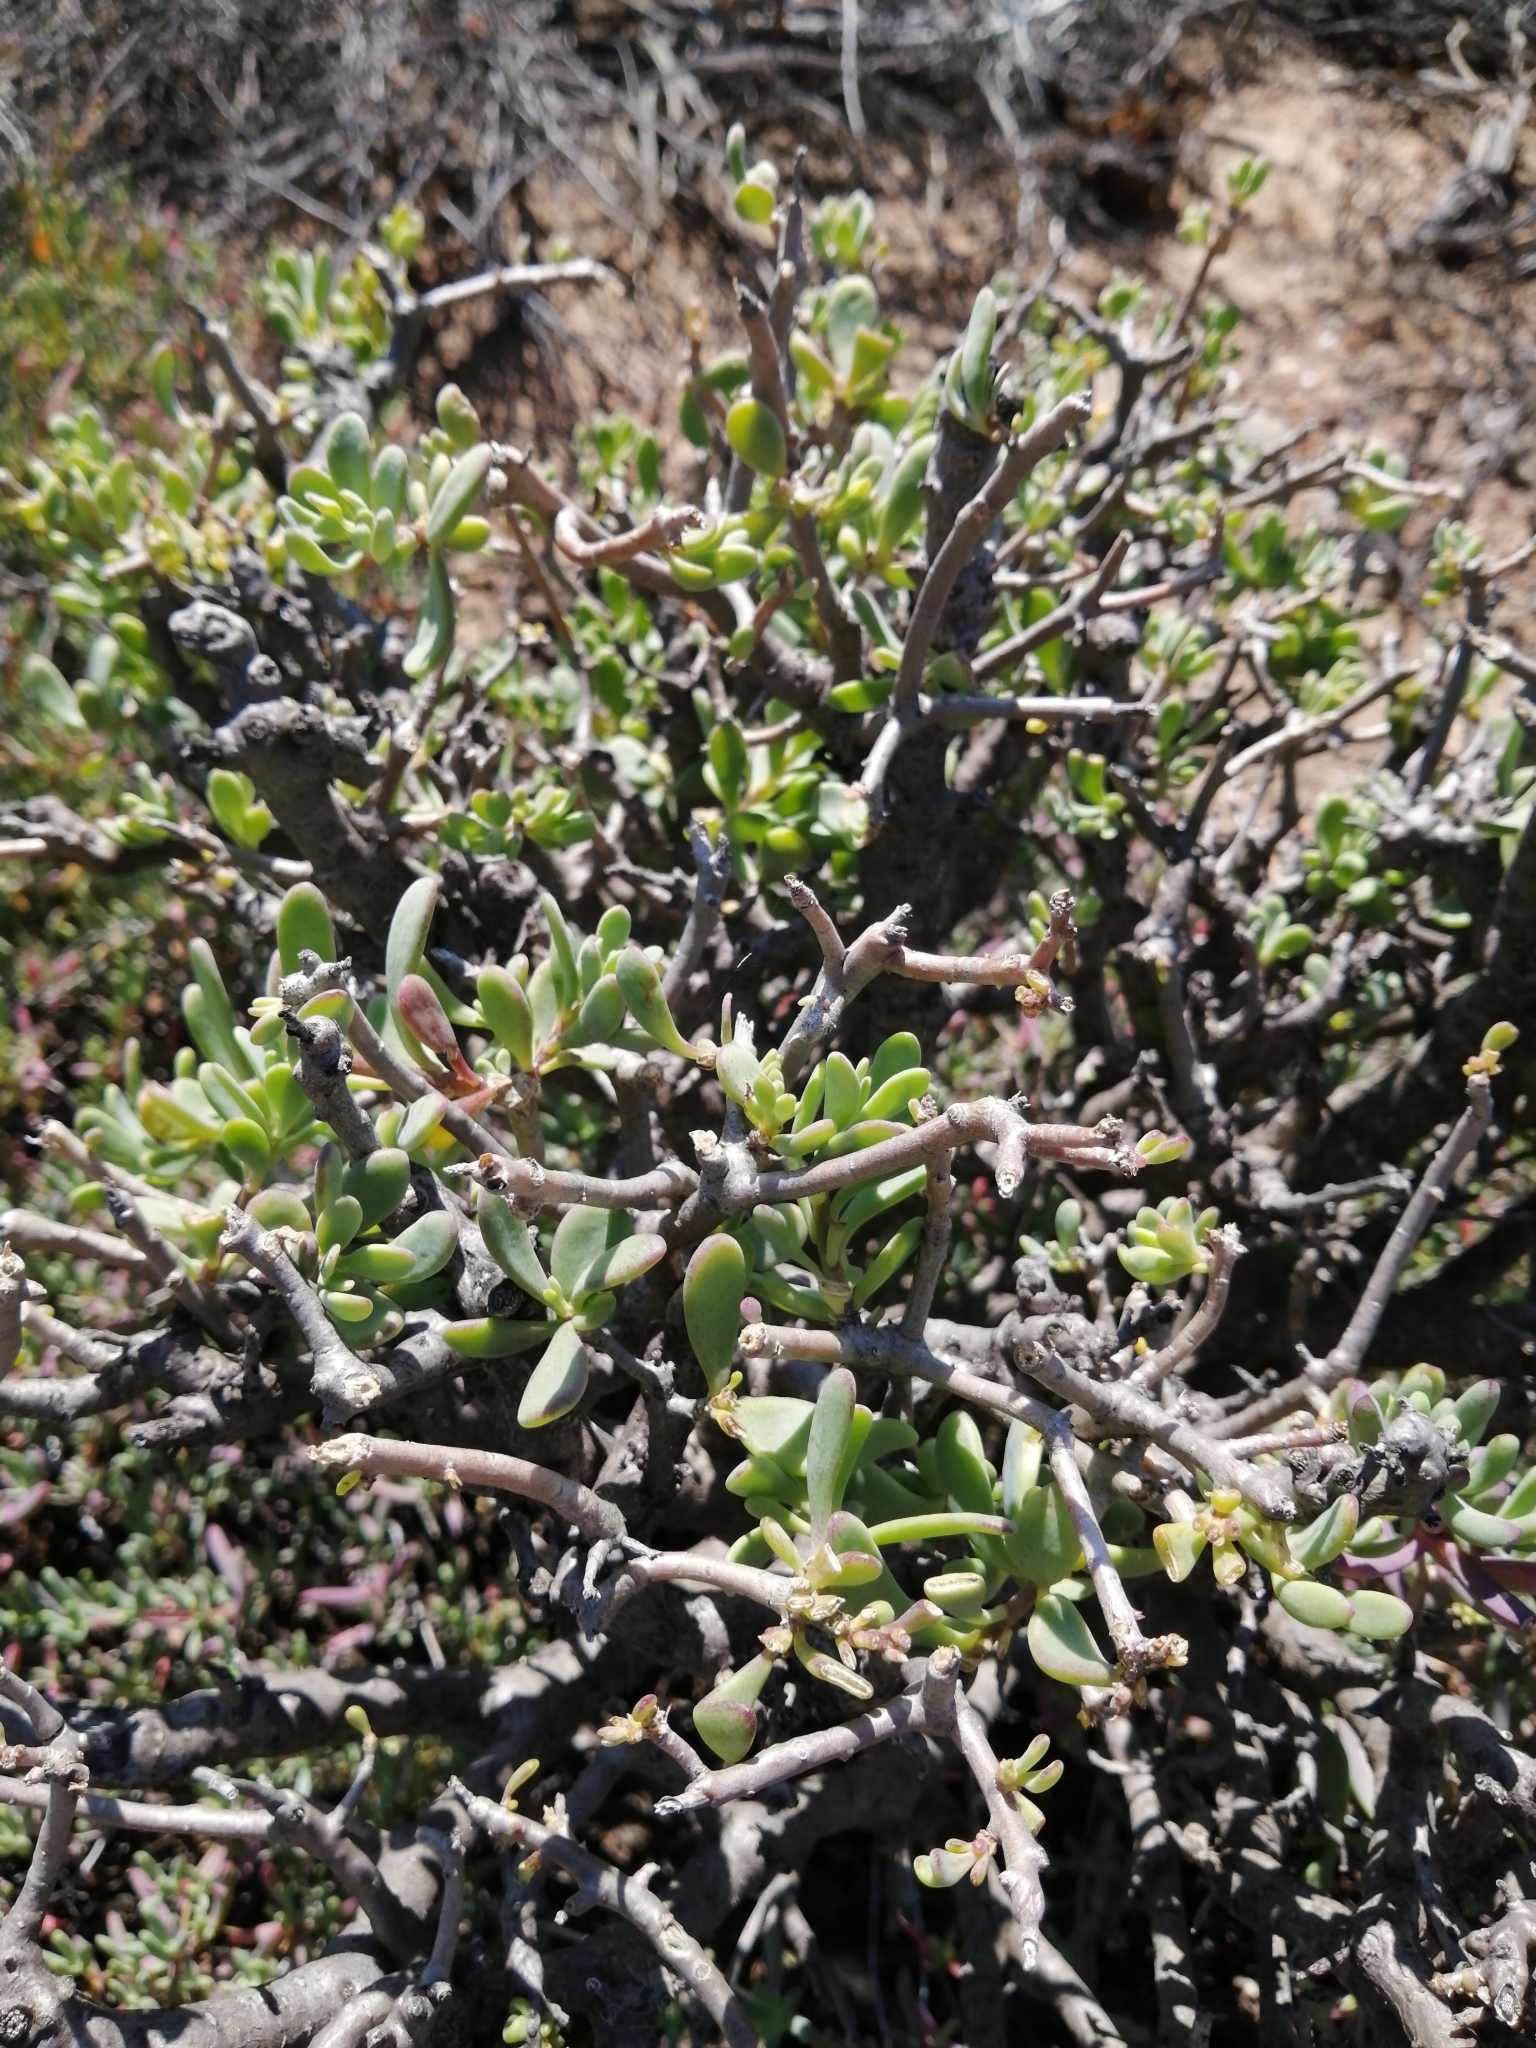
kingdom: Plantae
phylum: Tracheophyta
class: Magnoliopsida
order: Asterales
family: Asteraceae
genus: Othonna
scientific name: Othonna arbuscula
